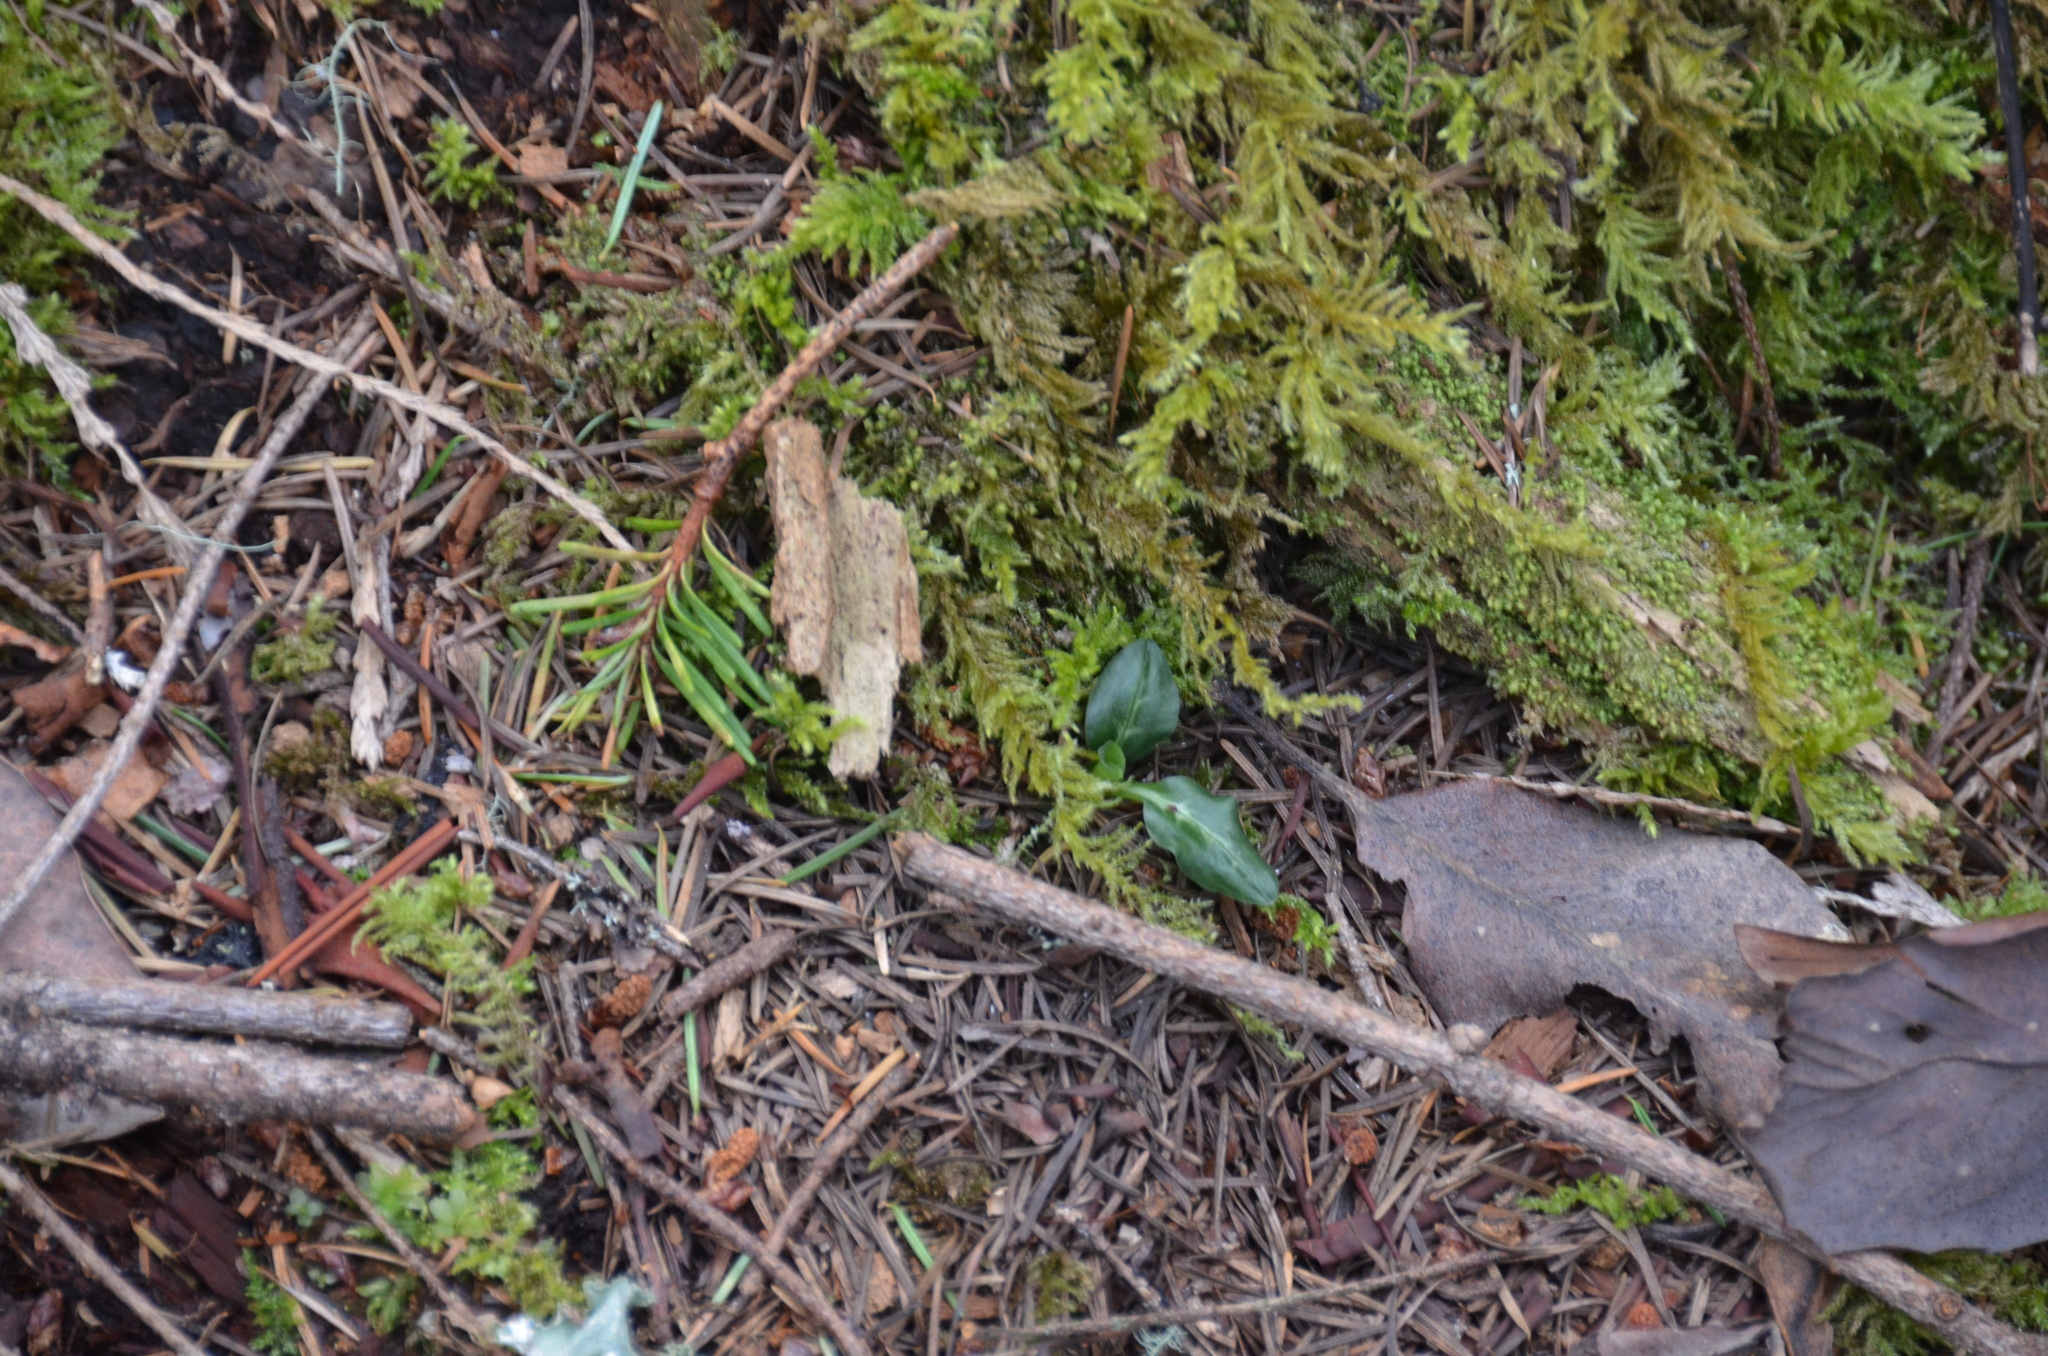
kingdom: Plantae
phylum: Tracheophyta
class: Liliopsida
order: Asparagales
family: Orchidaceae
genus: Goodyera
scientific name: Goodyera oblongifolia
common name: Giant rattlesnake-plantain
